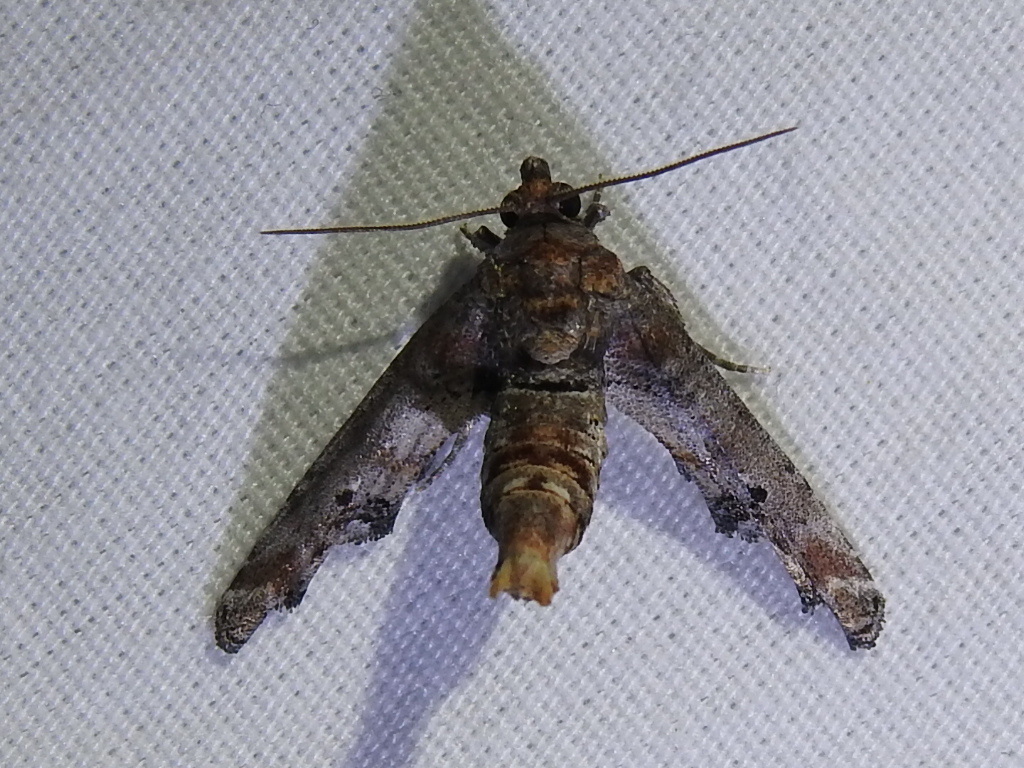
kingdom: Animalia
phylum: Arthropoda
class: Insecta
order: Lepidoptera
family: Euteliidae
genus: Marathyssa
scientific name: Marathyssa inficita
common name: Dark marathyssa moth
